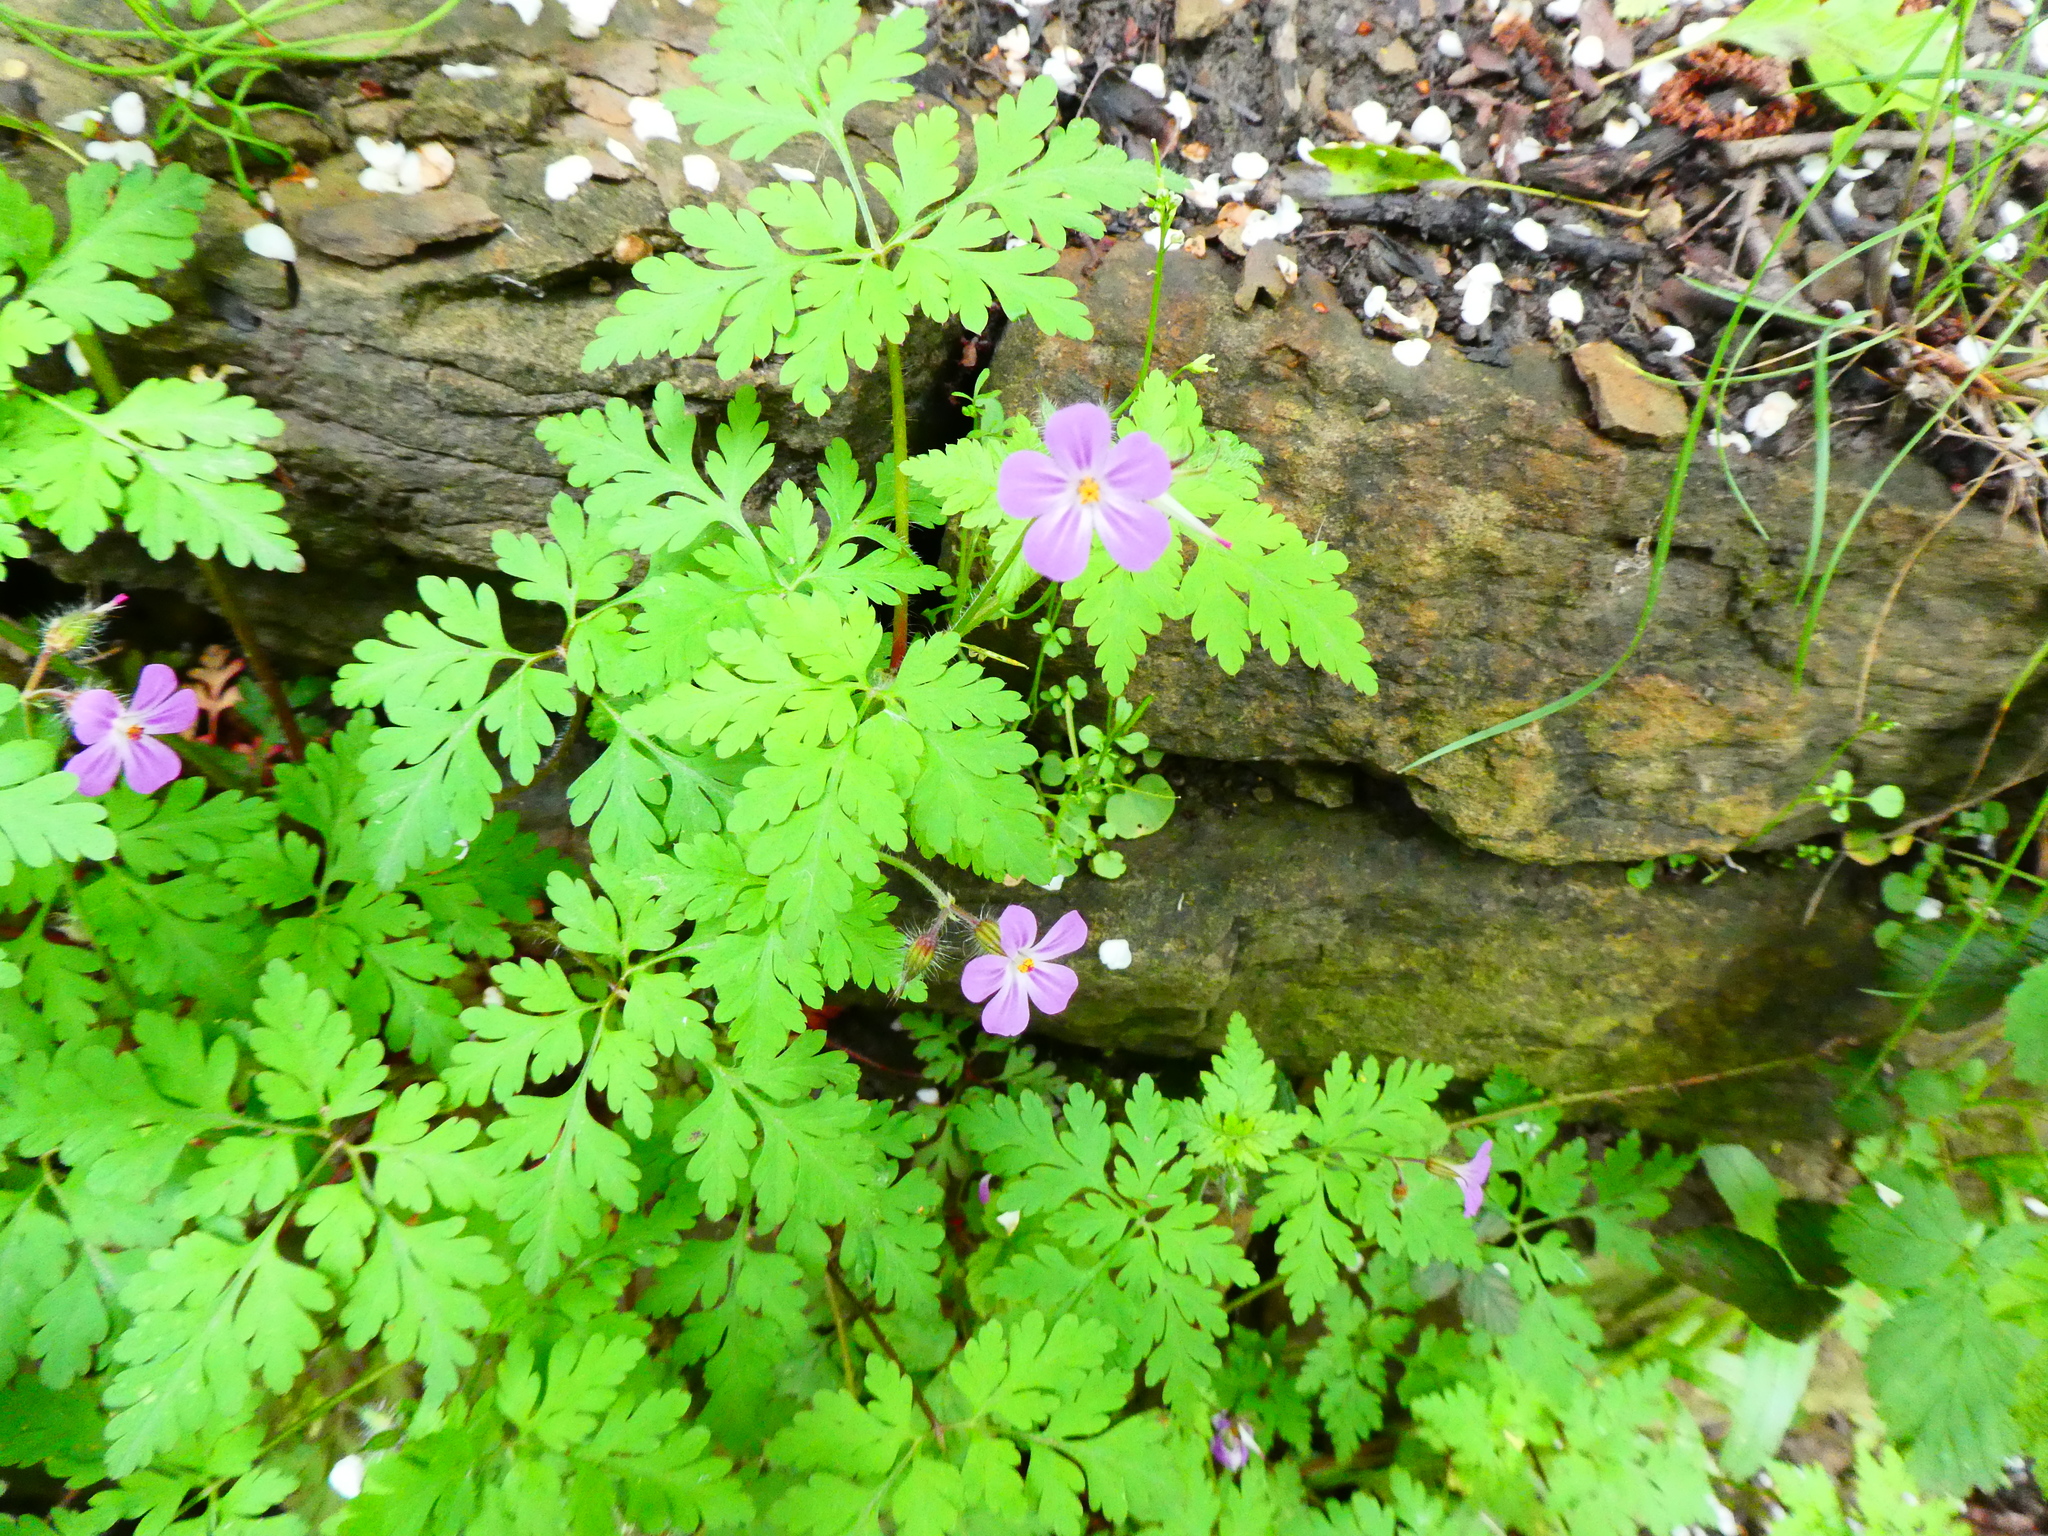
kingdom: Plantae
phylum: Tracheophyta
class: Magnoliopsida
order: Geraniales
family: Geraniaceae
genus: Geranium
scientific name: Geranium robertianum
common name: Herb-robert
